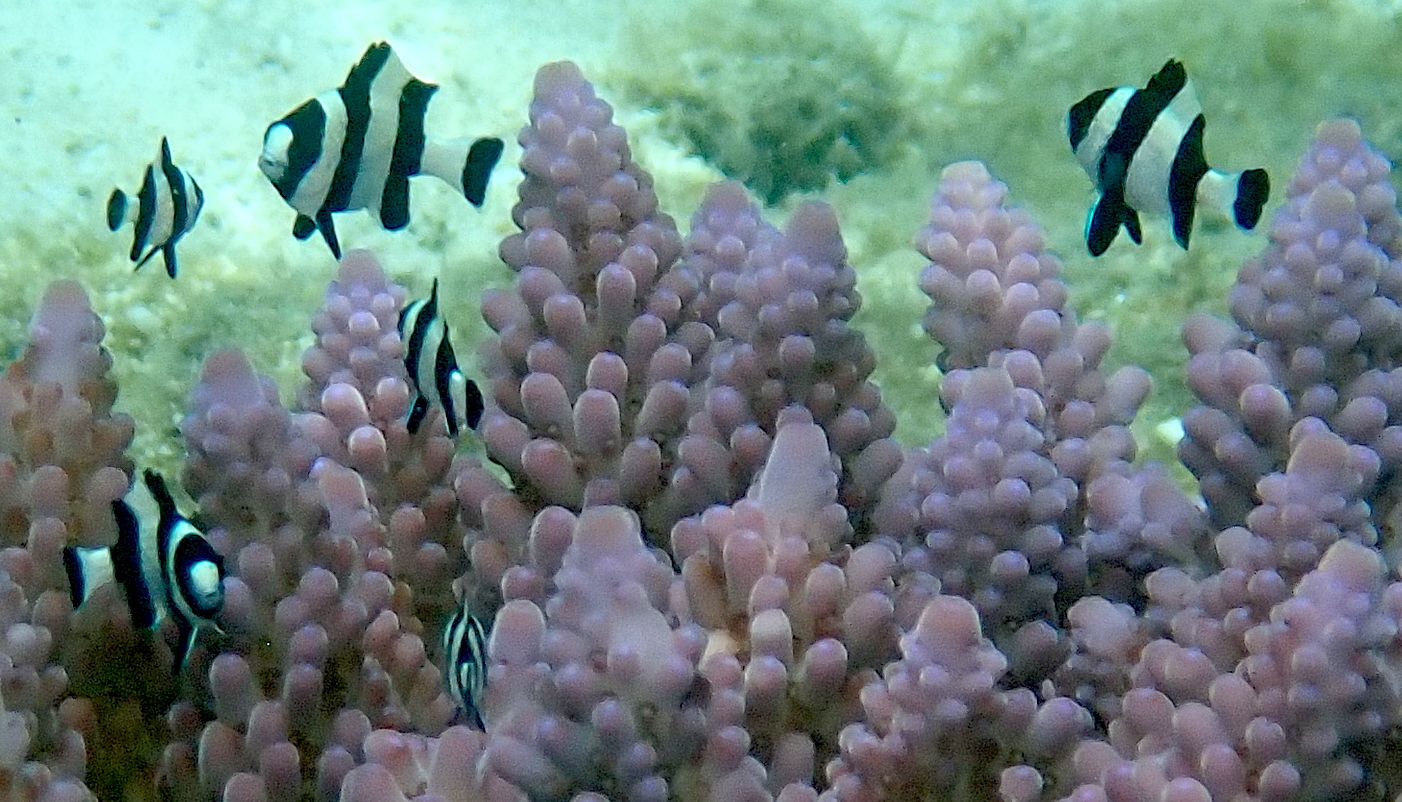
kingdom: Animalia
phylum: Chordata
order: Perciformes
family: Pomacentridae
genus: Dascyllus
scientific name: Dascyllus melanurus
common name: Black-tail dascyllus
